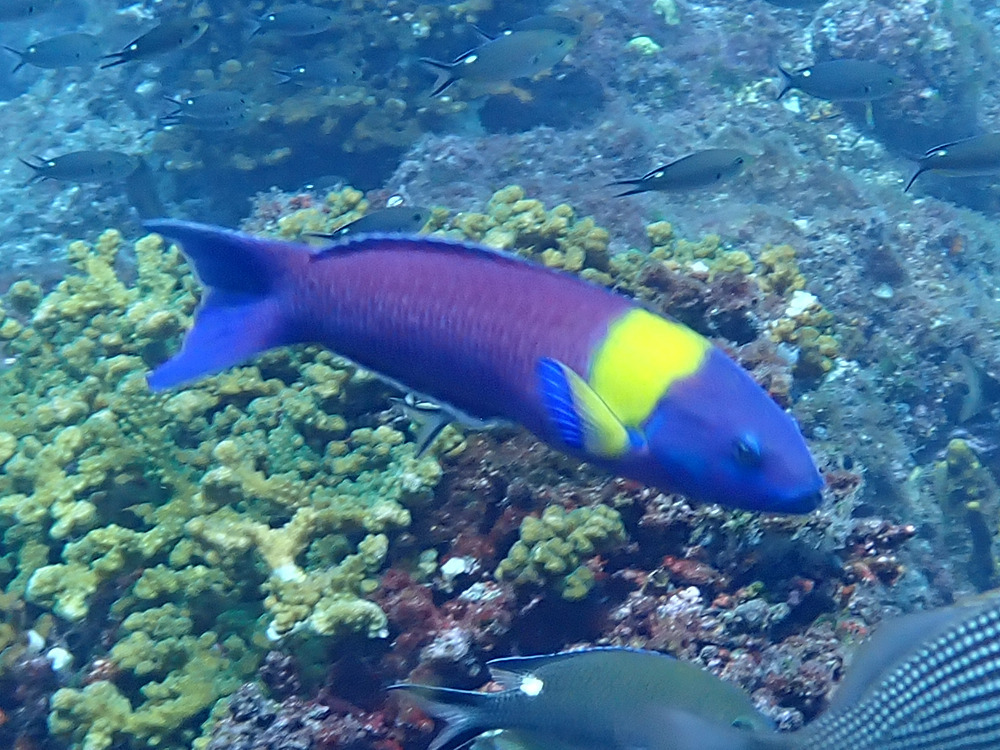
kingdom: Animalia
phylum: Chordata
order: Perciformes
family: Labridae
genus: Thalassoma
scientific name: Thalassoma lucasanum
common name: Cortez rainbow wrasse
